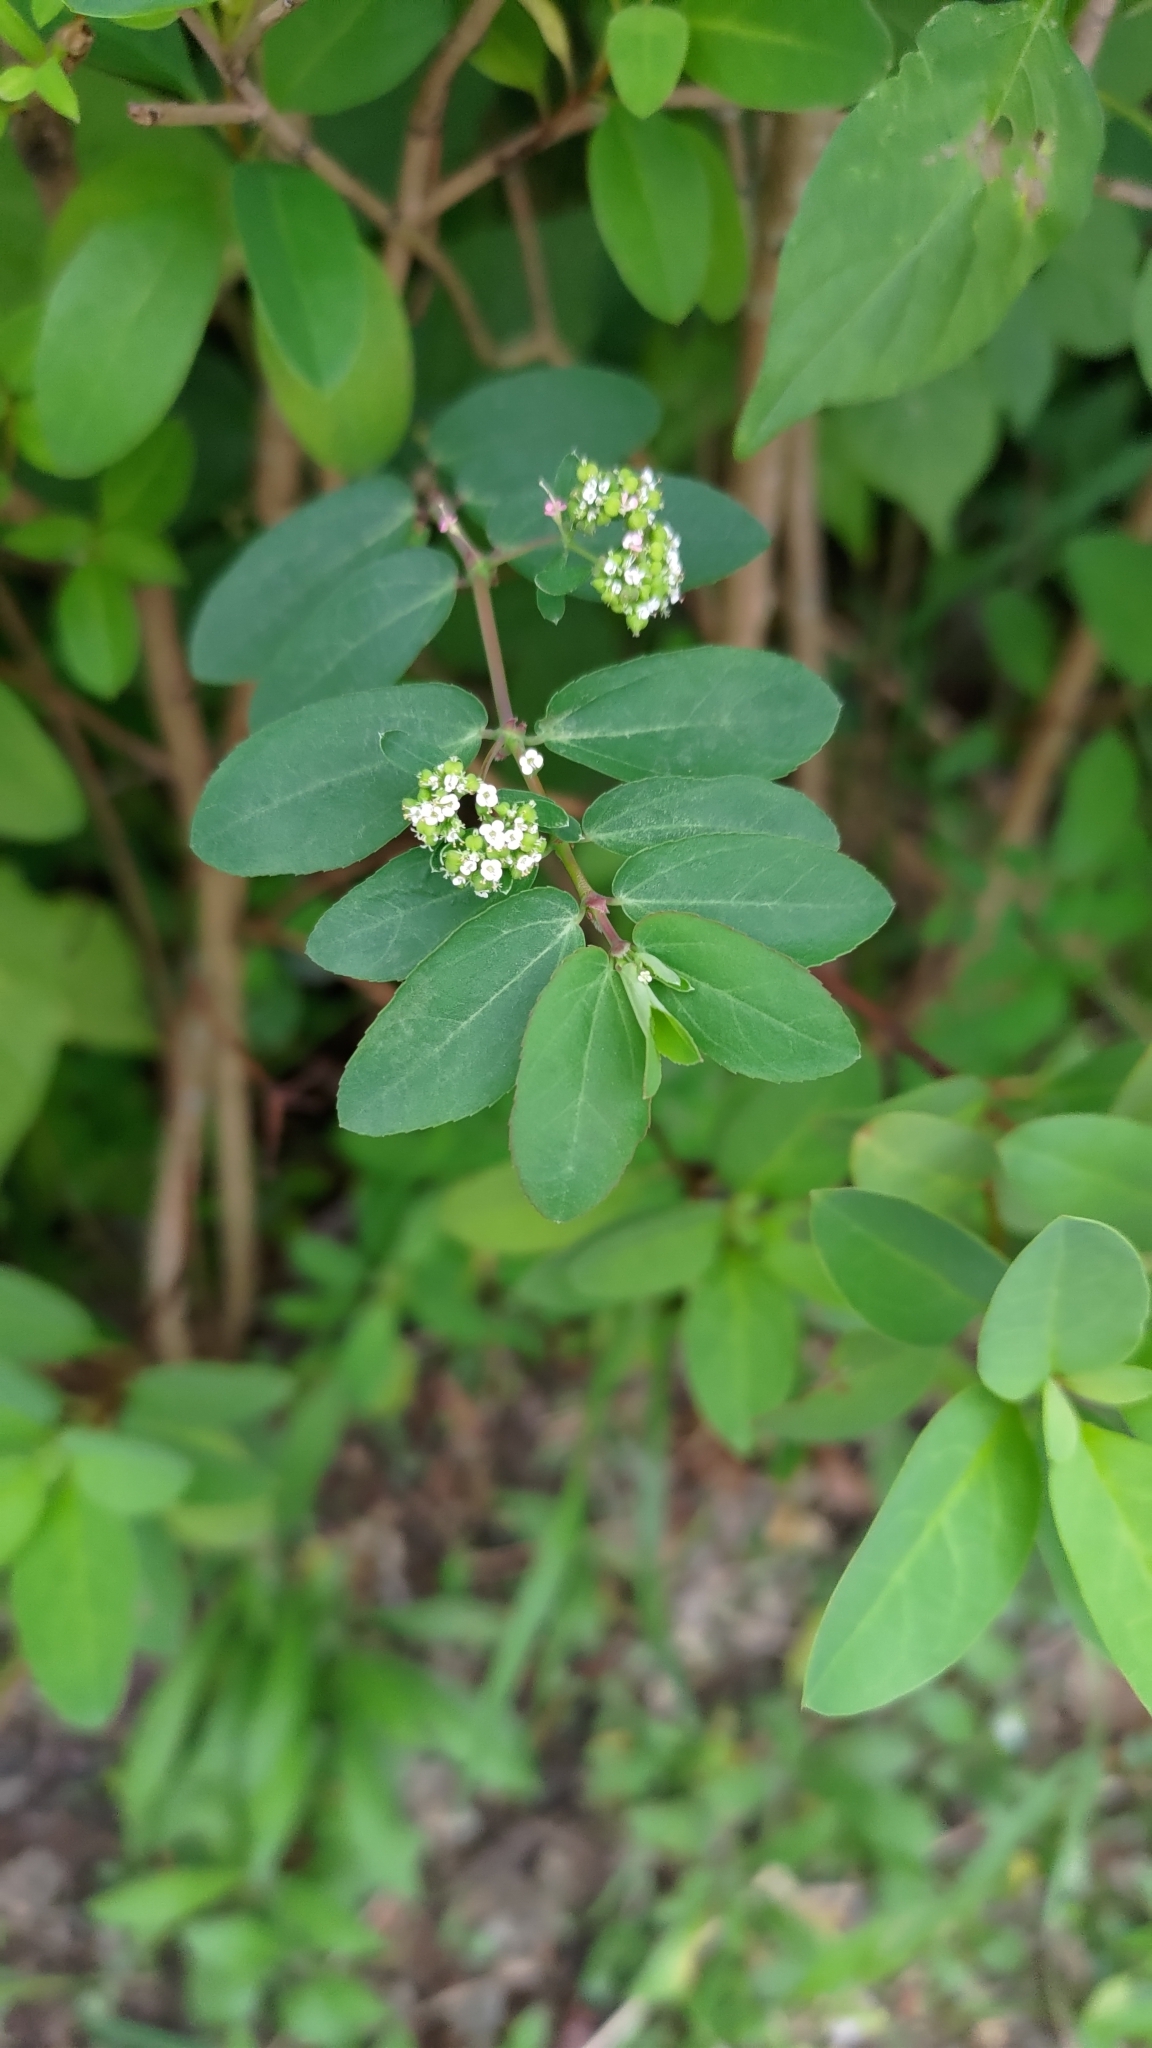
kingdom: Plantae
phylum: Tracheophyta
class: Magnoliopsida
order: Malpighiales
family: Euphorbiaceae
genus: Euphorbia
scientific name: Euphorbia hypericifolia
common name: Graceful sandmat
